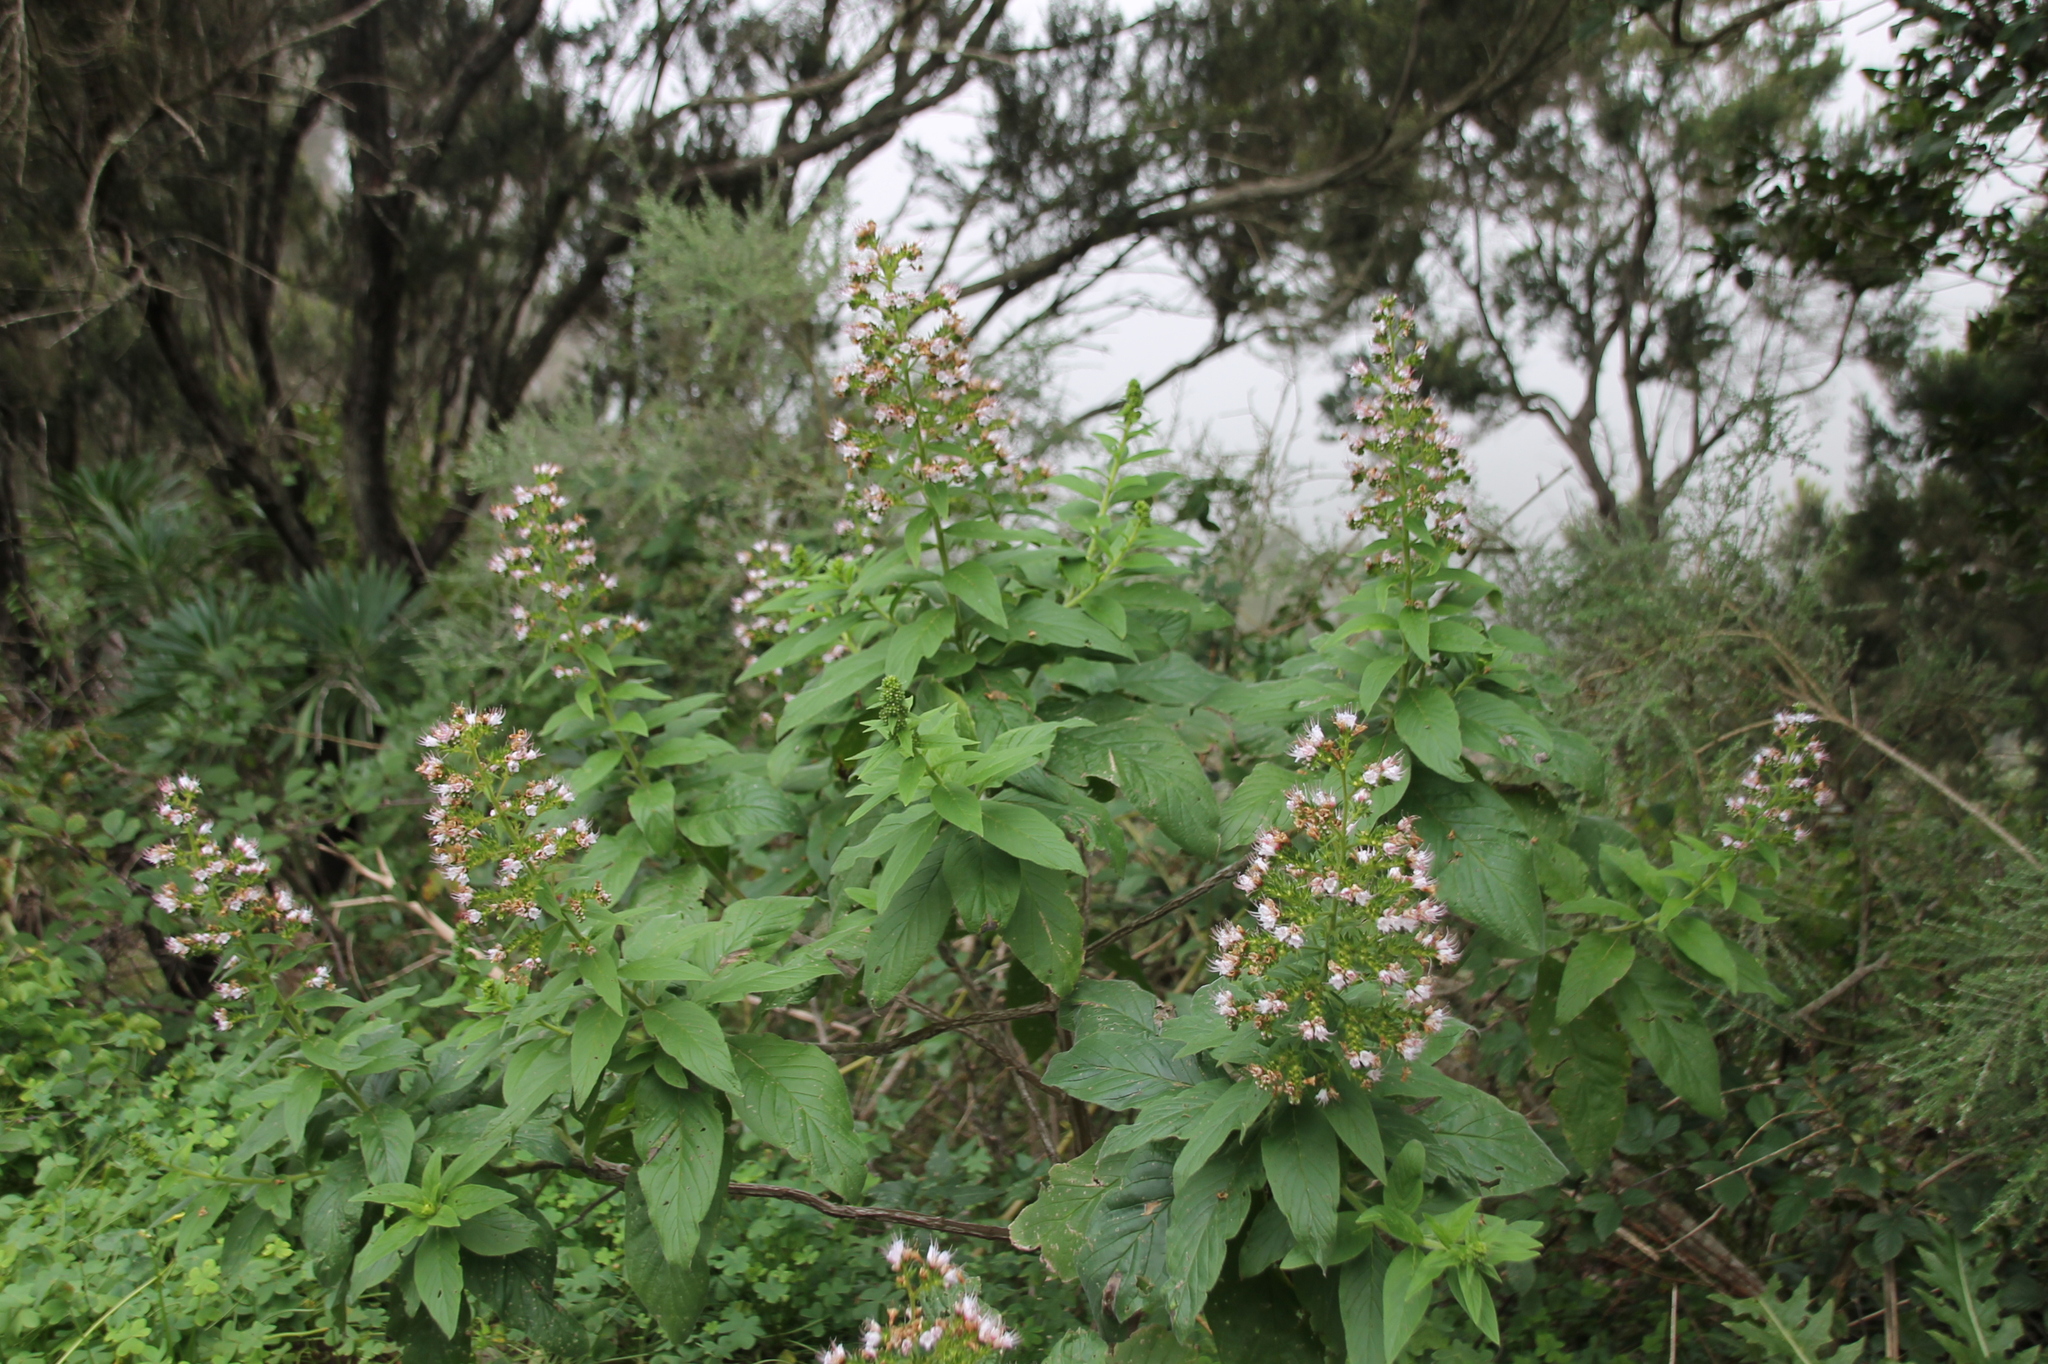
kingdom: Plantae
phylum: Tracheophyta
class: Magnoliopsida
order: Boraginales
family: Boraginaceae
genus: Echium
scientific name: Echium strictum
